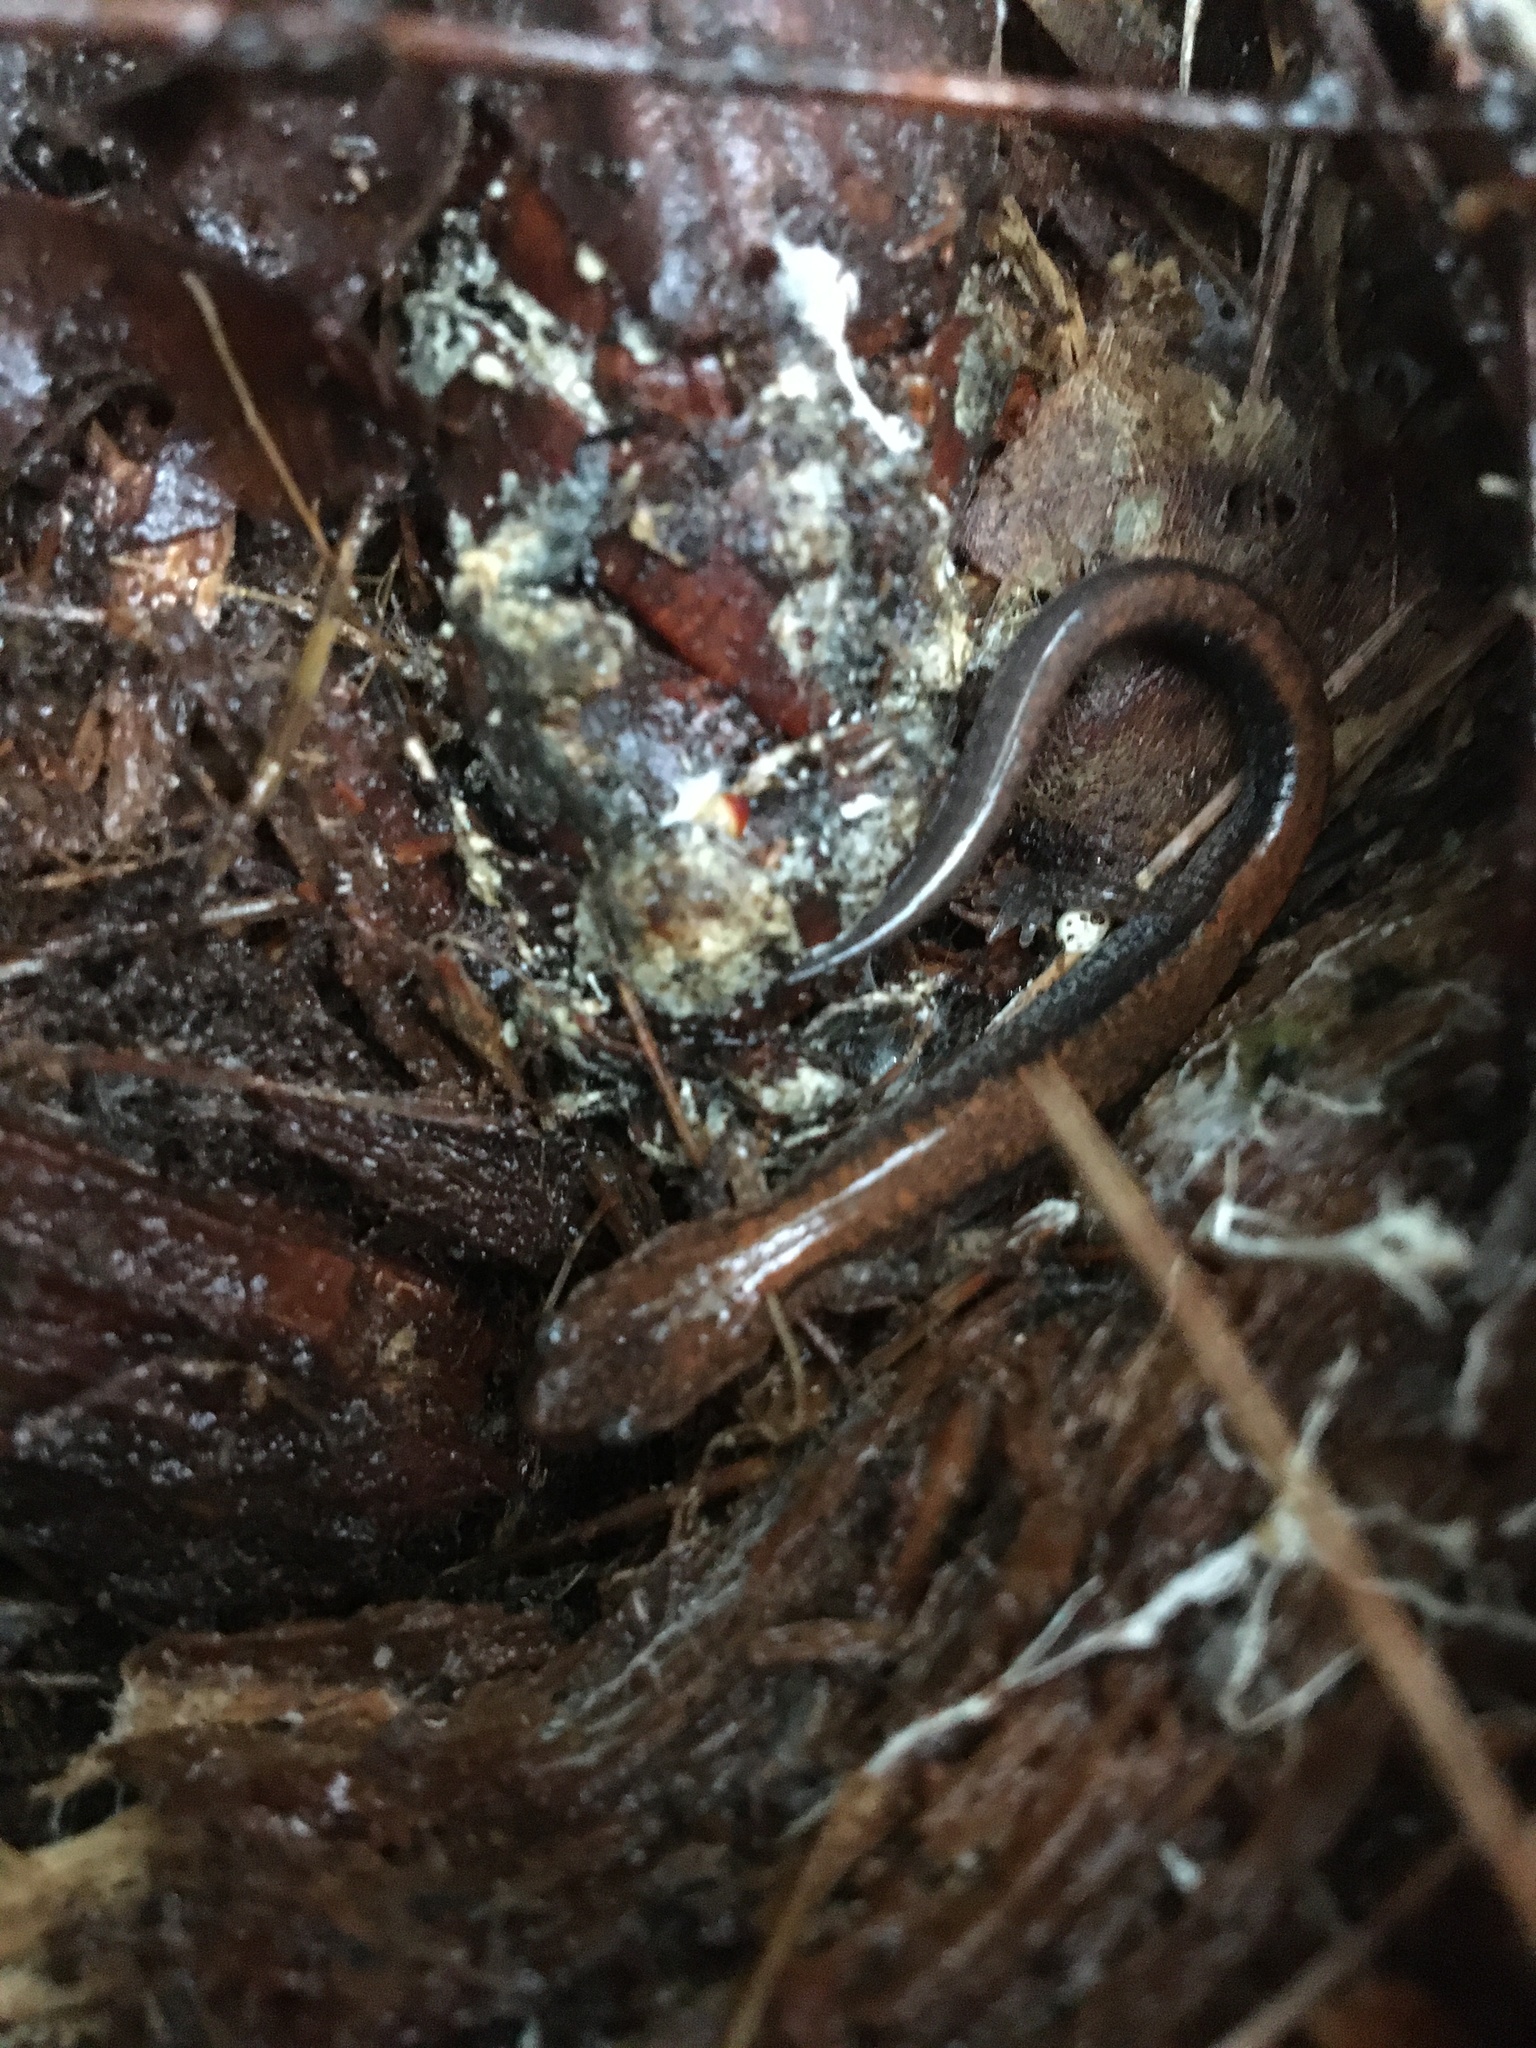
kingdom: Animalia
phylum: Chordata
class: Amphibia
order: Caudata
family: Plethodontidae
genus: Plethodon
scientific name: Plethodon cinereus
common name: Redback salamander
